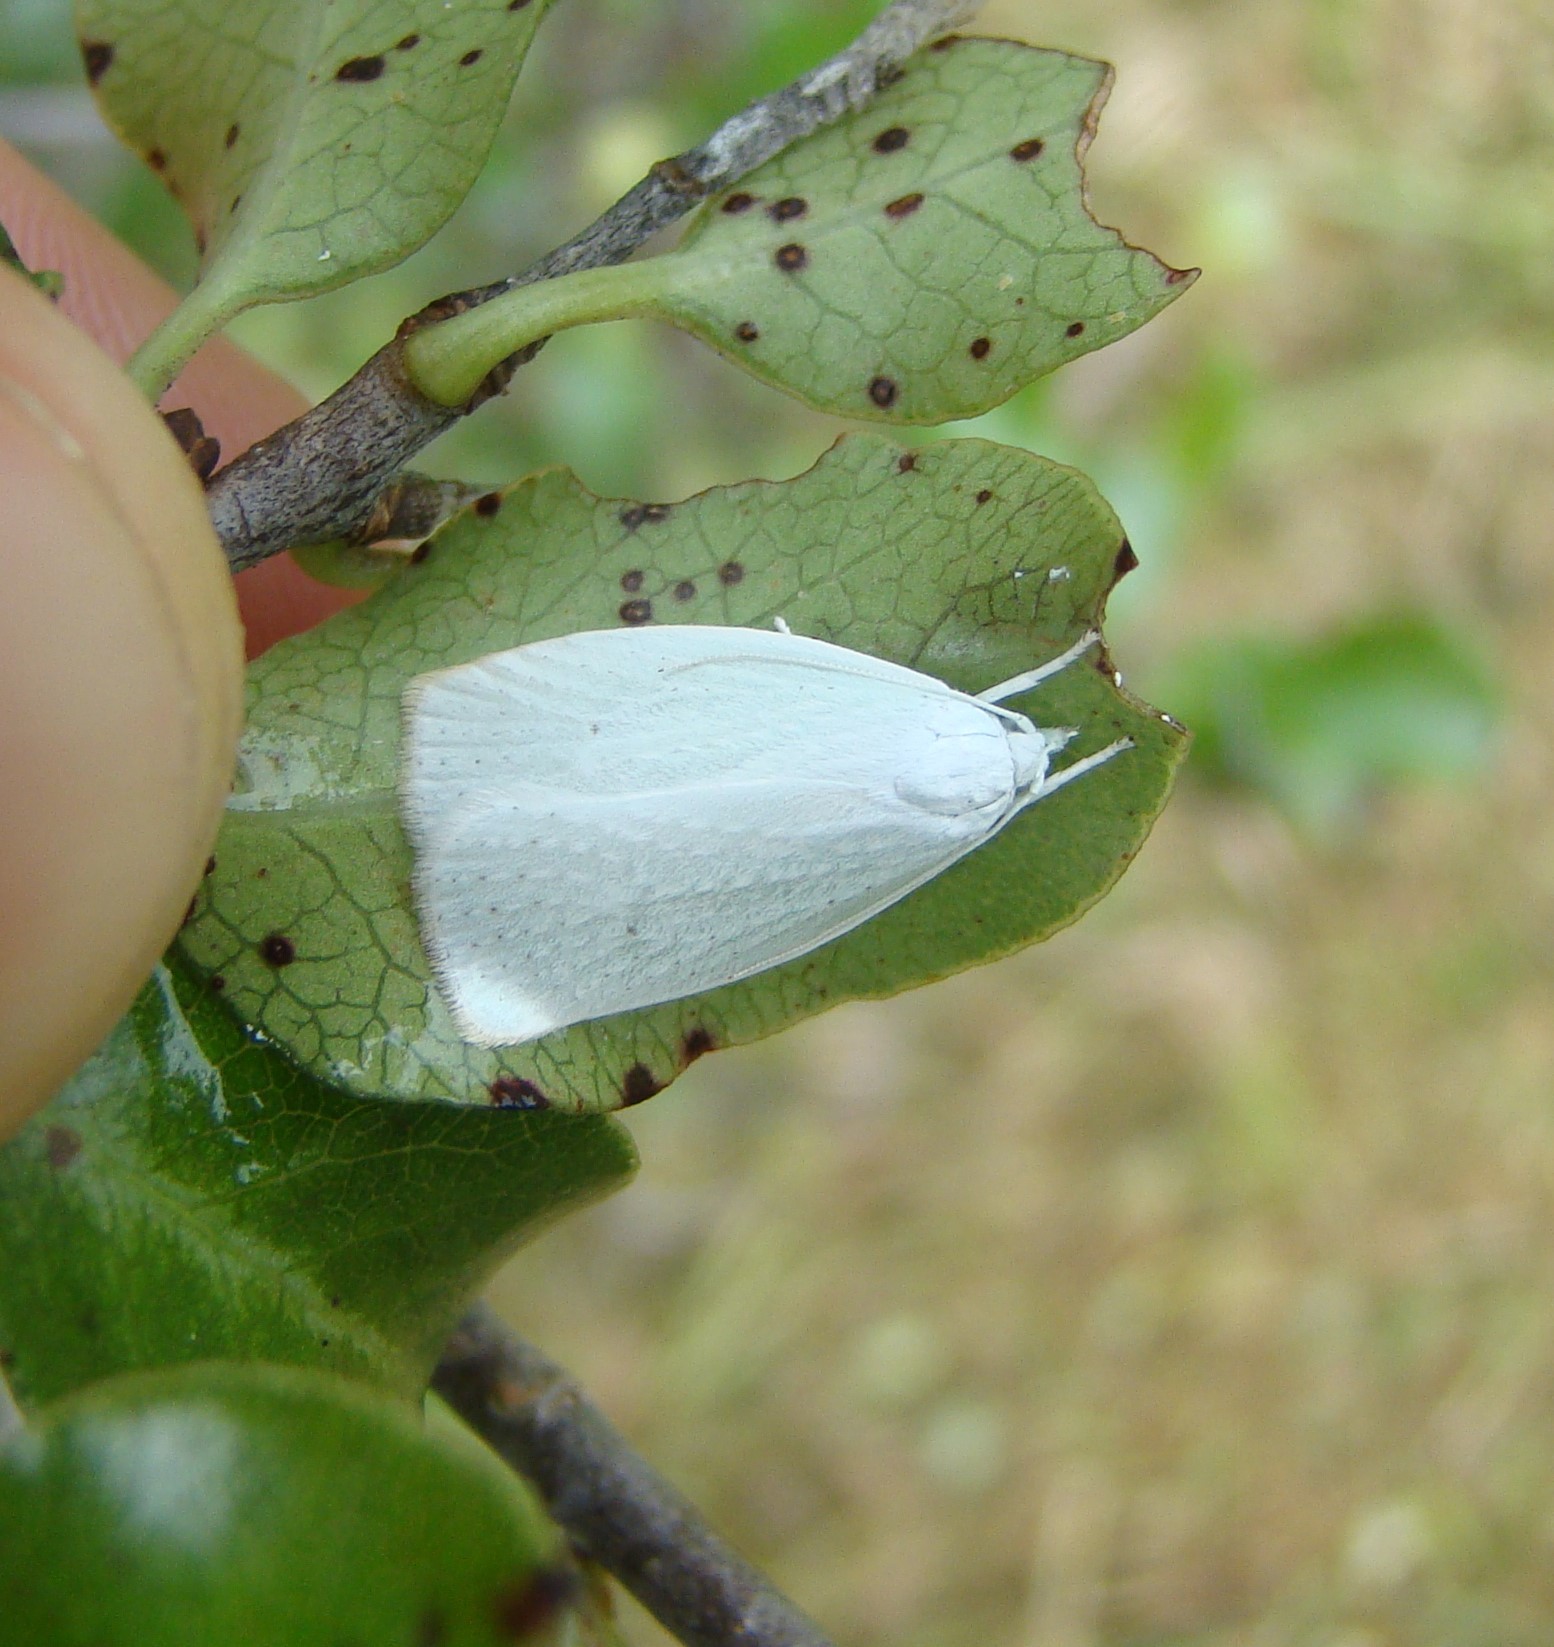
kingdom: Animalia
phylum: Arthropoda
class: Insecta
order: Lepidoptera
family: Oecophoridae
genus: Nymphostola
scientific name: Nymphostola galactina
